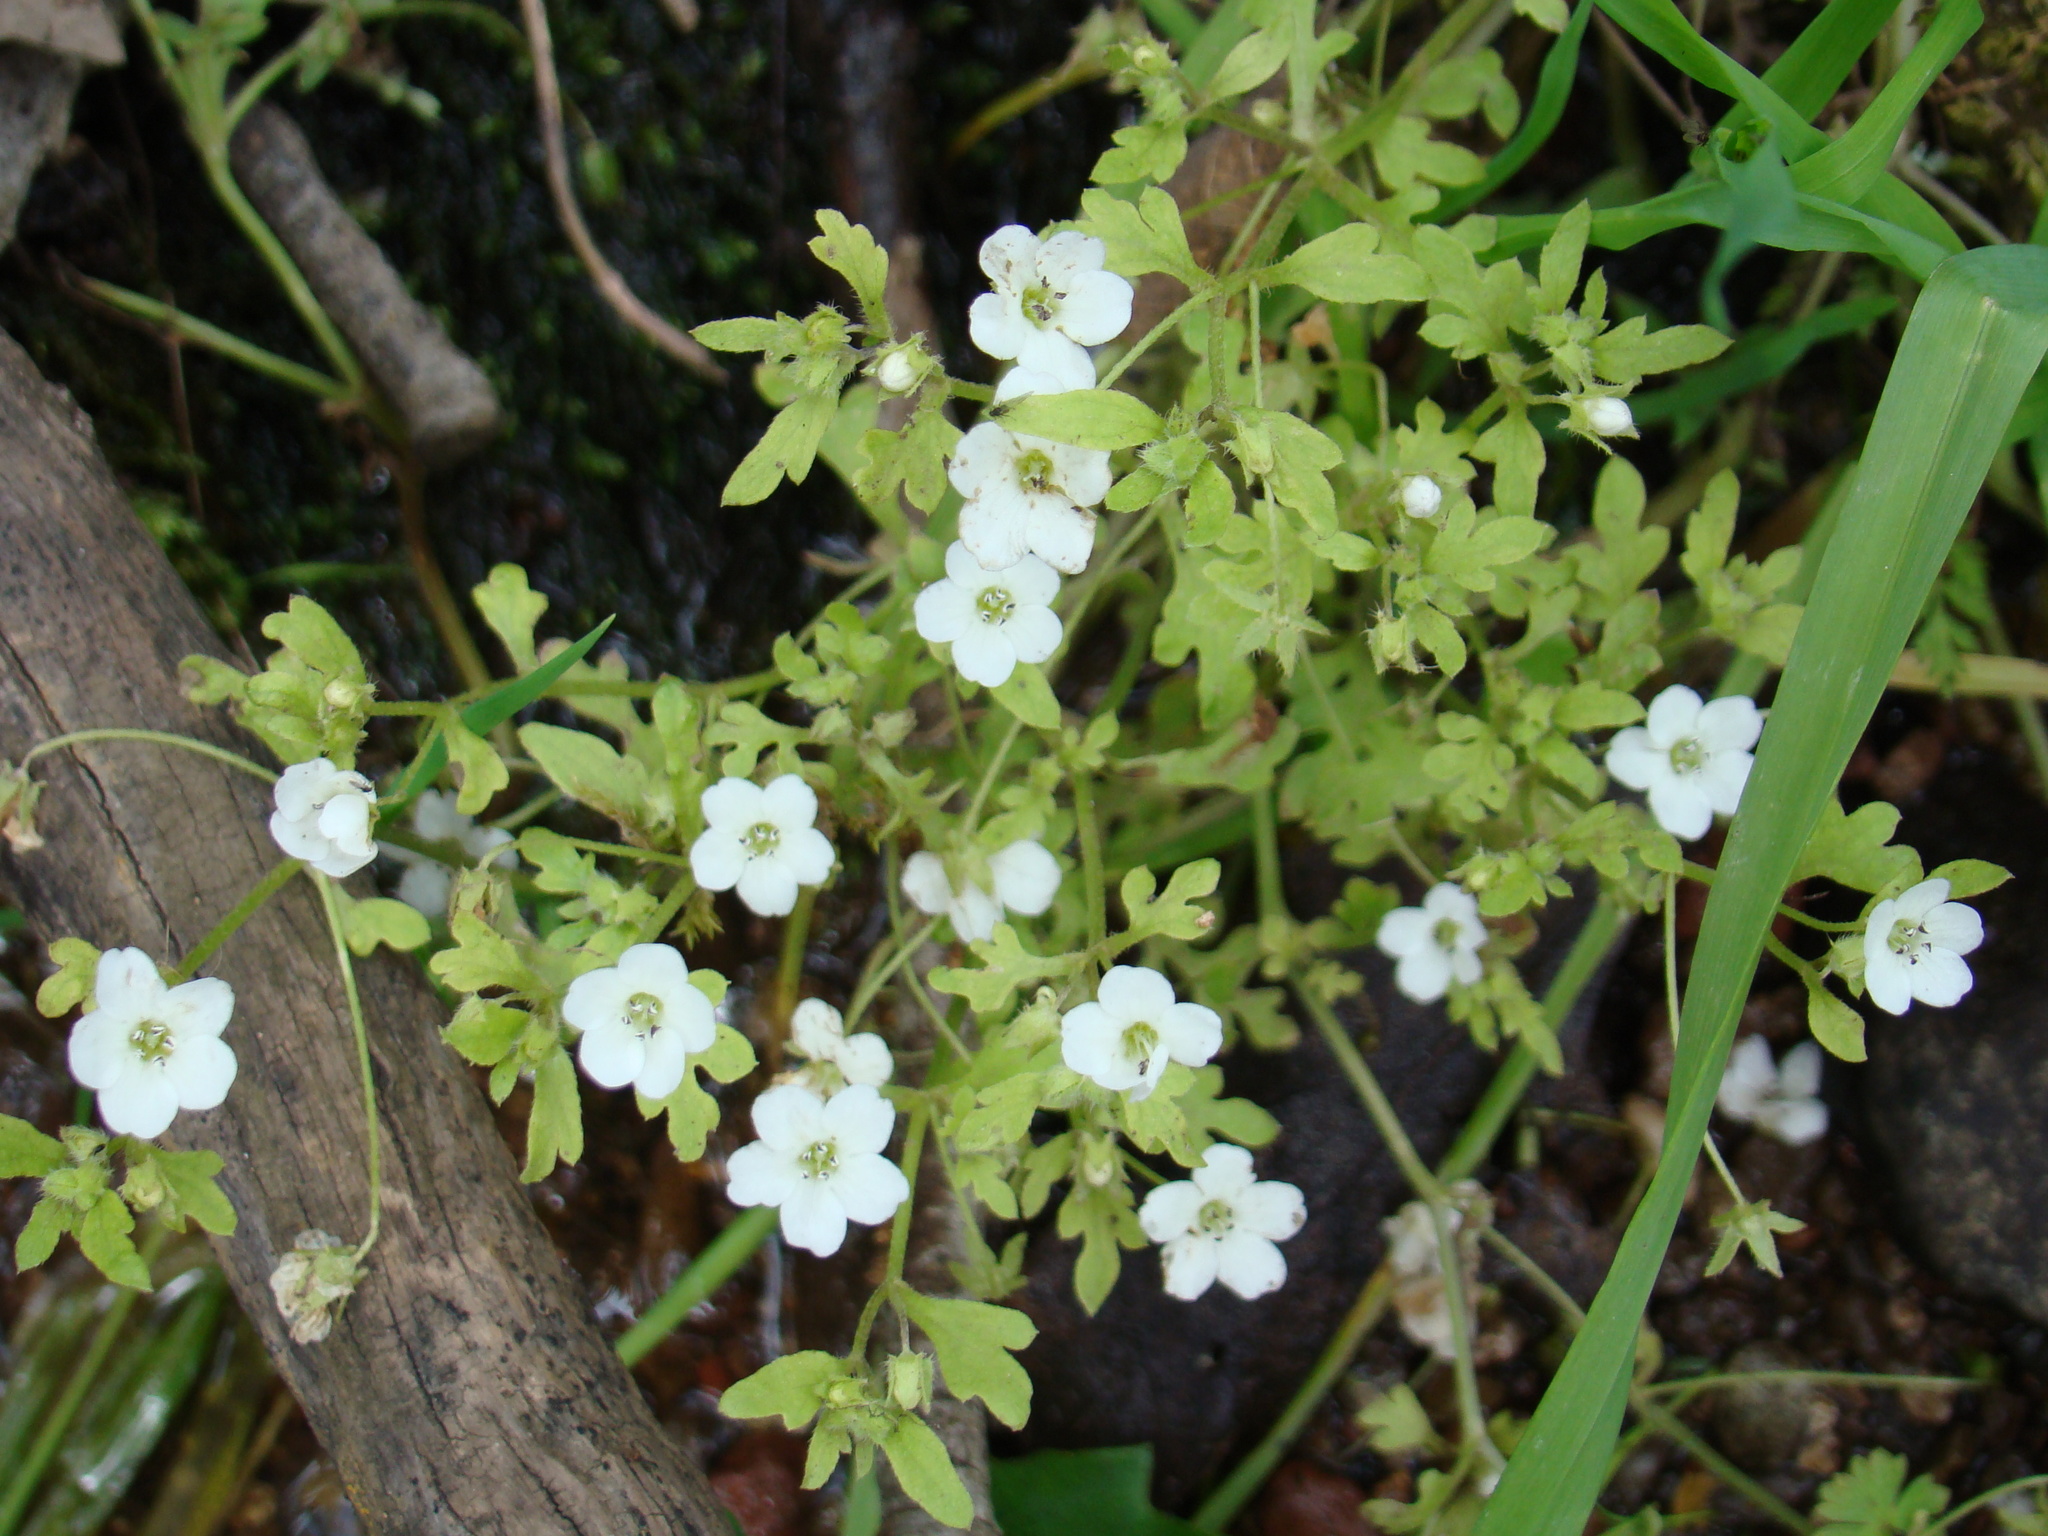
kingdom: Plantae
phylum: Tracheophyta
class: Magnoliopsida
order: Boraginales
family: Hydrophyllaceae
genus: Nemophila
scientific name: Nemophila heterophylla
